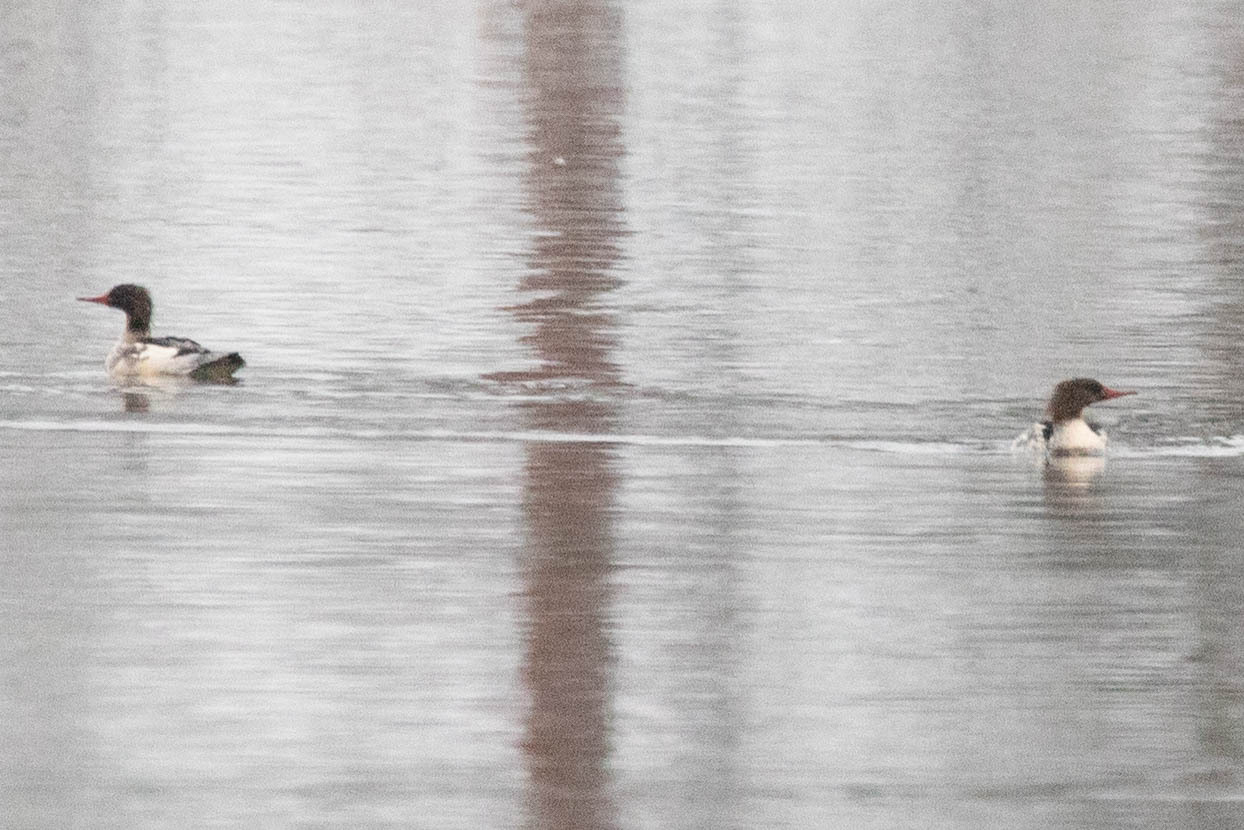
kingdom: Animalia
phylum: Chordata
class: Aves
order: Anseriformes
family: Anatidae
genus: Mergus
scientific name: Mergus serrator
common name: Red-breasted merganser
